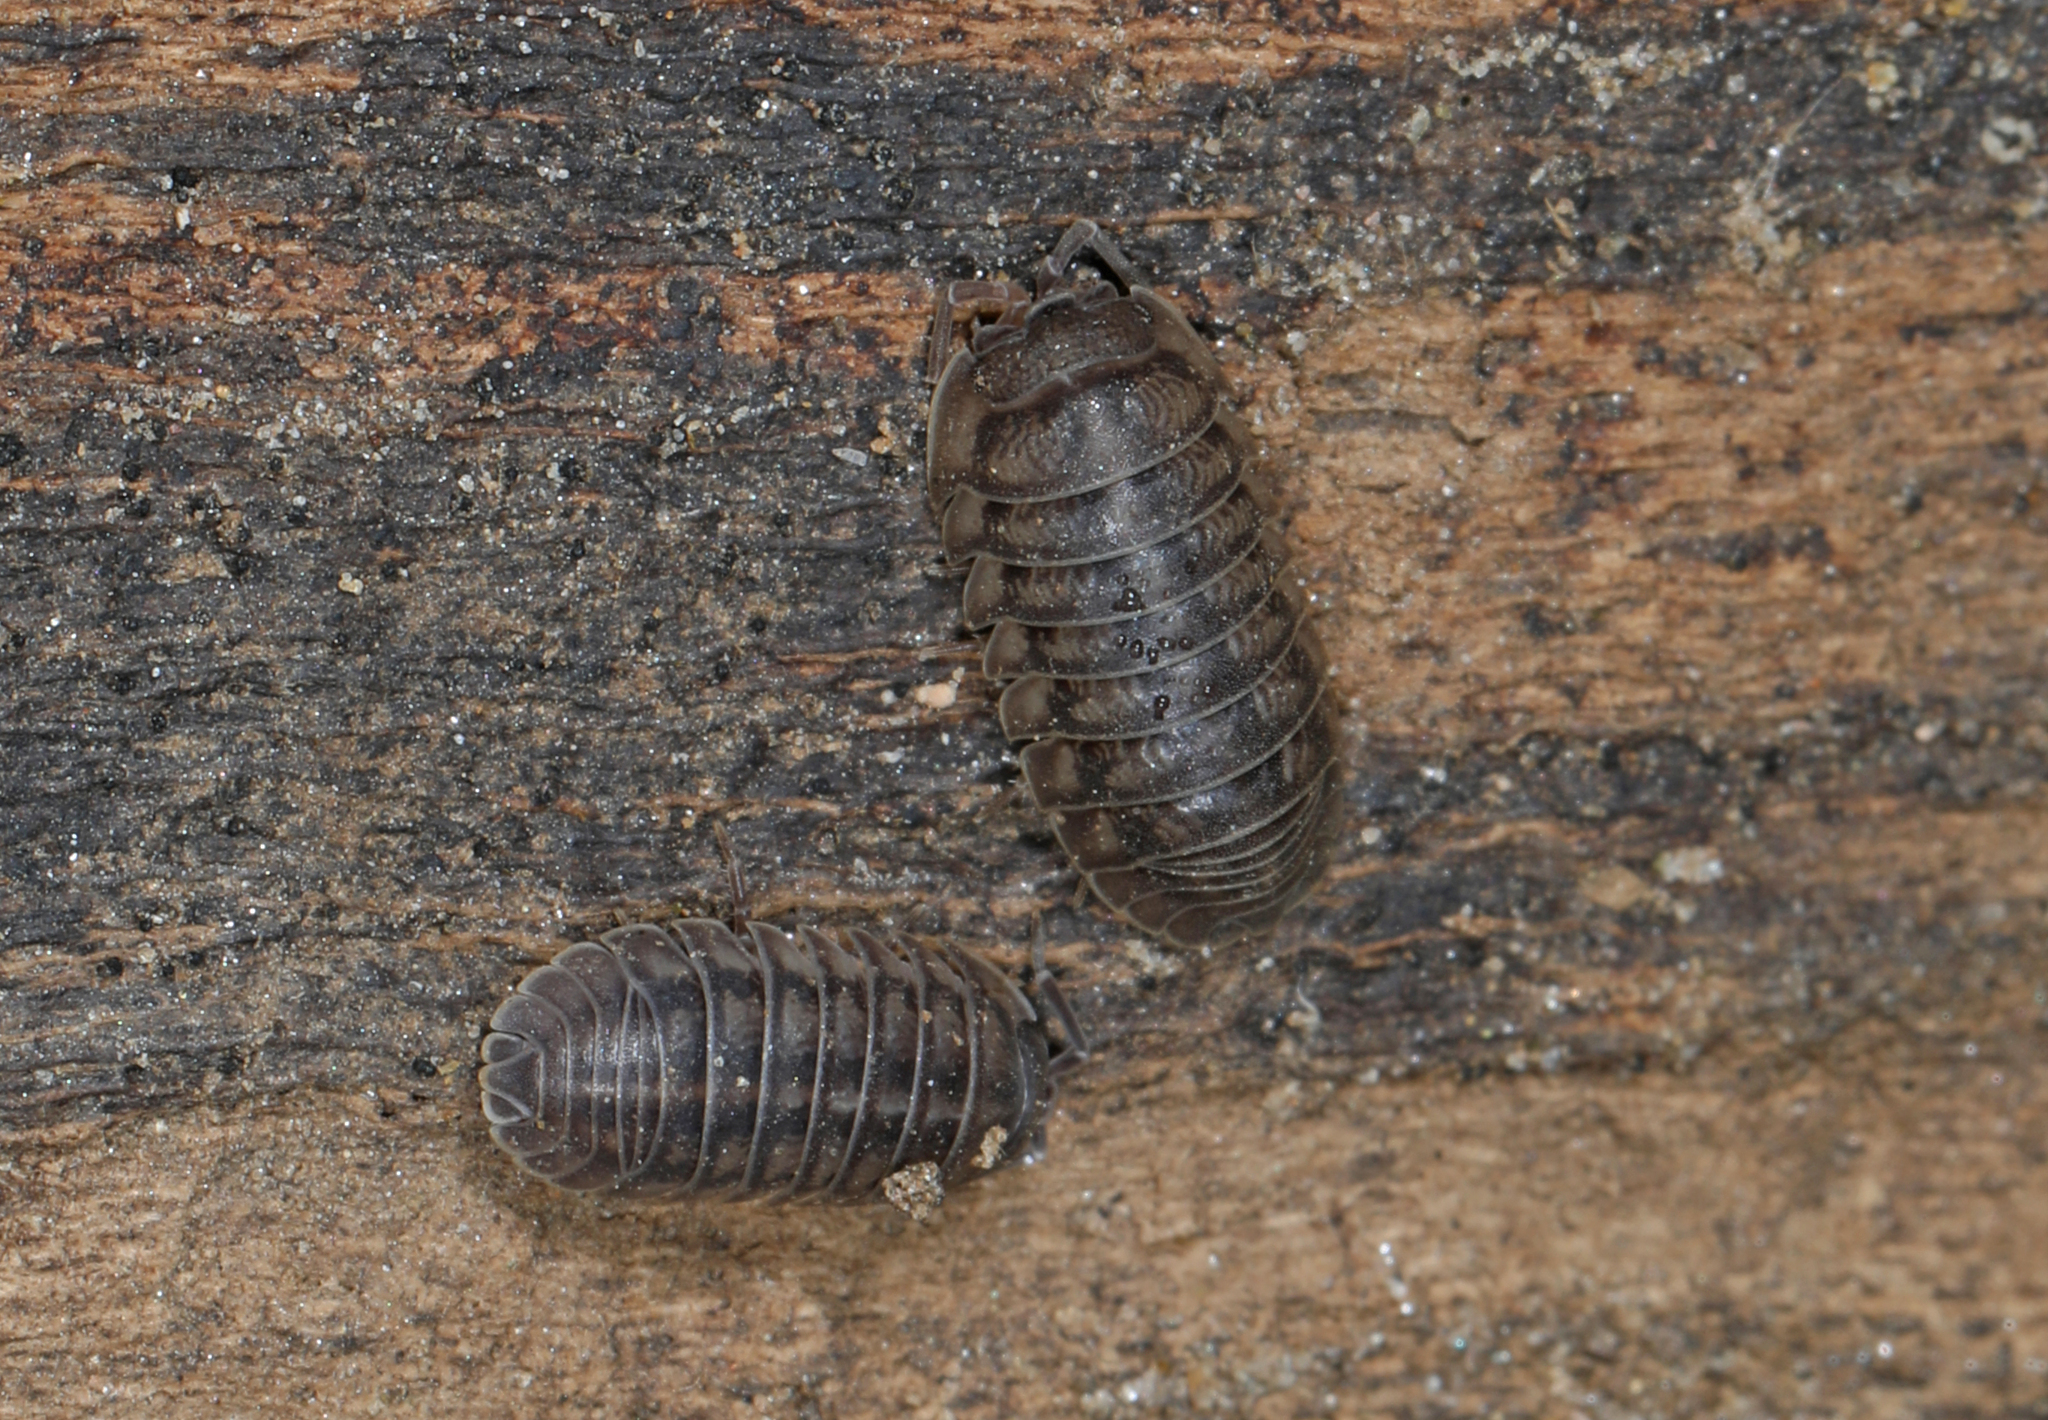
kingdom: Animalia
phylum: Arthropoda
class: Malacostraca
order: Isopoda
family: Armadillidiidae
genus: Armadillidium
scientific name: Armadillidium nasatum
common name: Isopod
